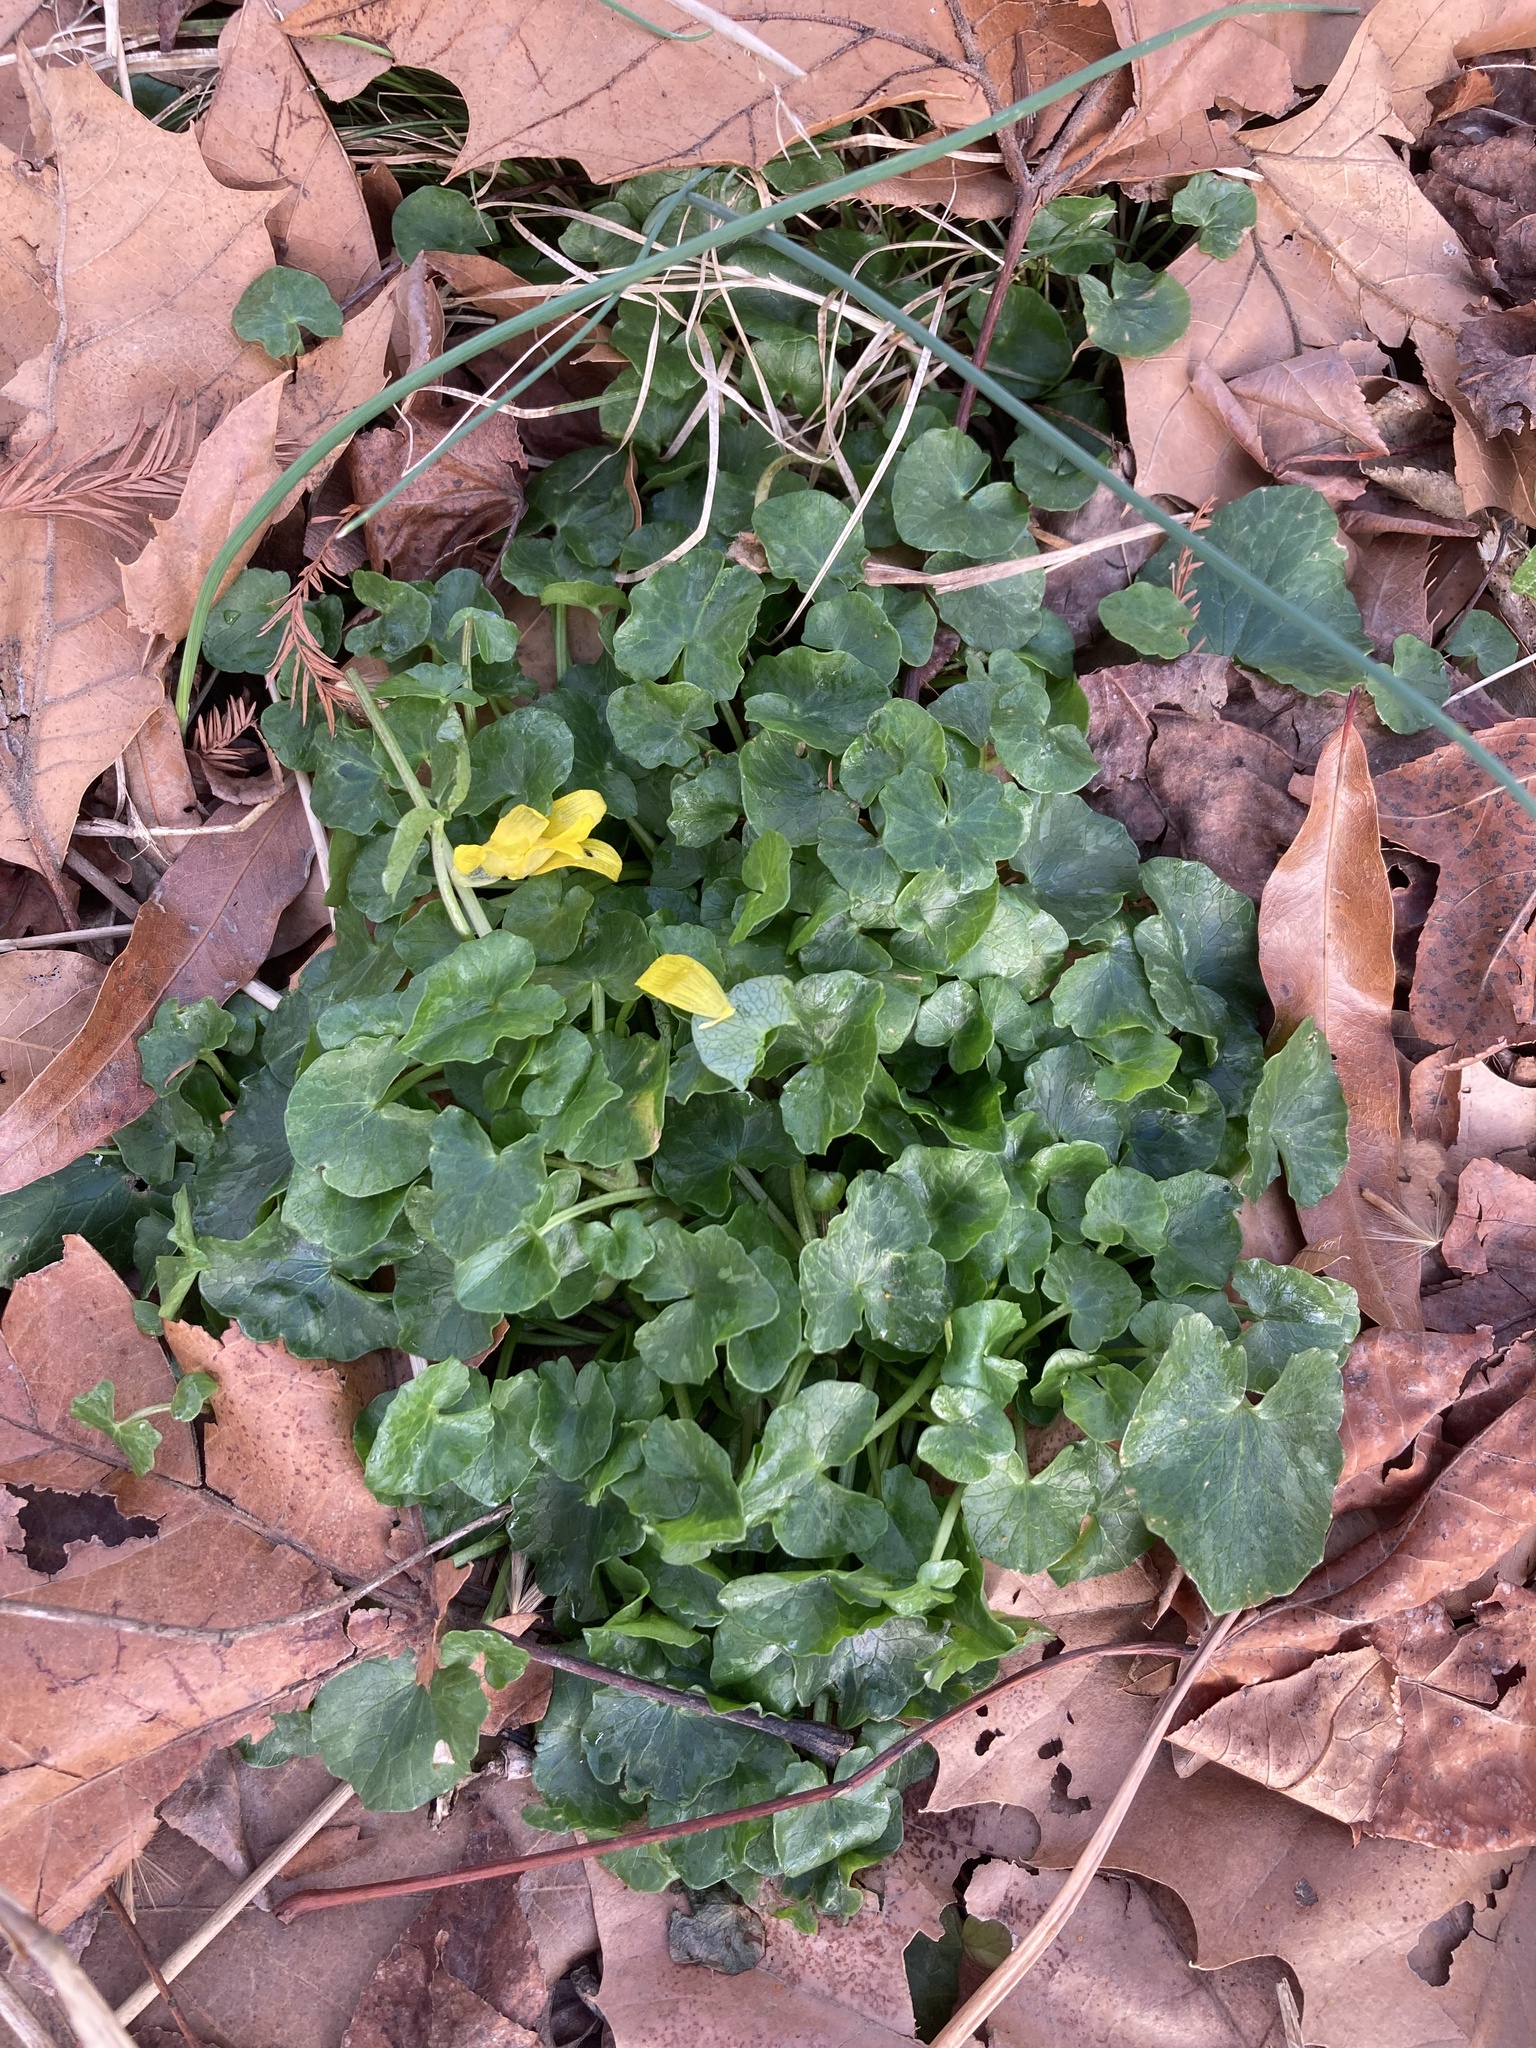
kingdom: Plantae
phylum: Tracheophyta
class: Magnoliopsida
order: Ranunculales
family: Ranunculaceae
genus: Ficaria
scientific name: Ficaria verna
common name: Lesser celandine
